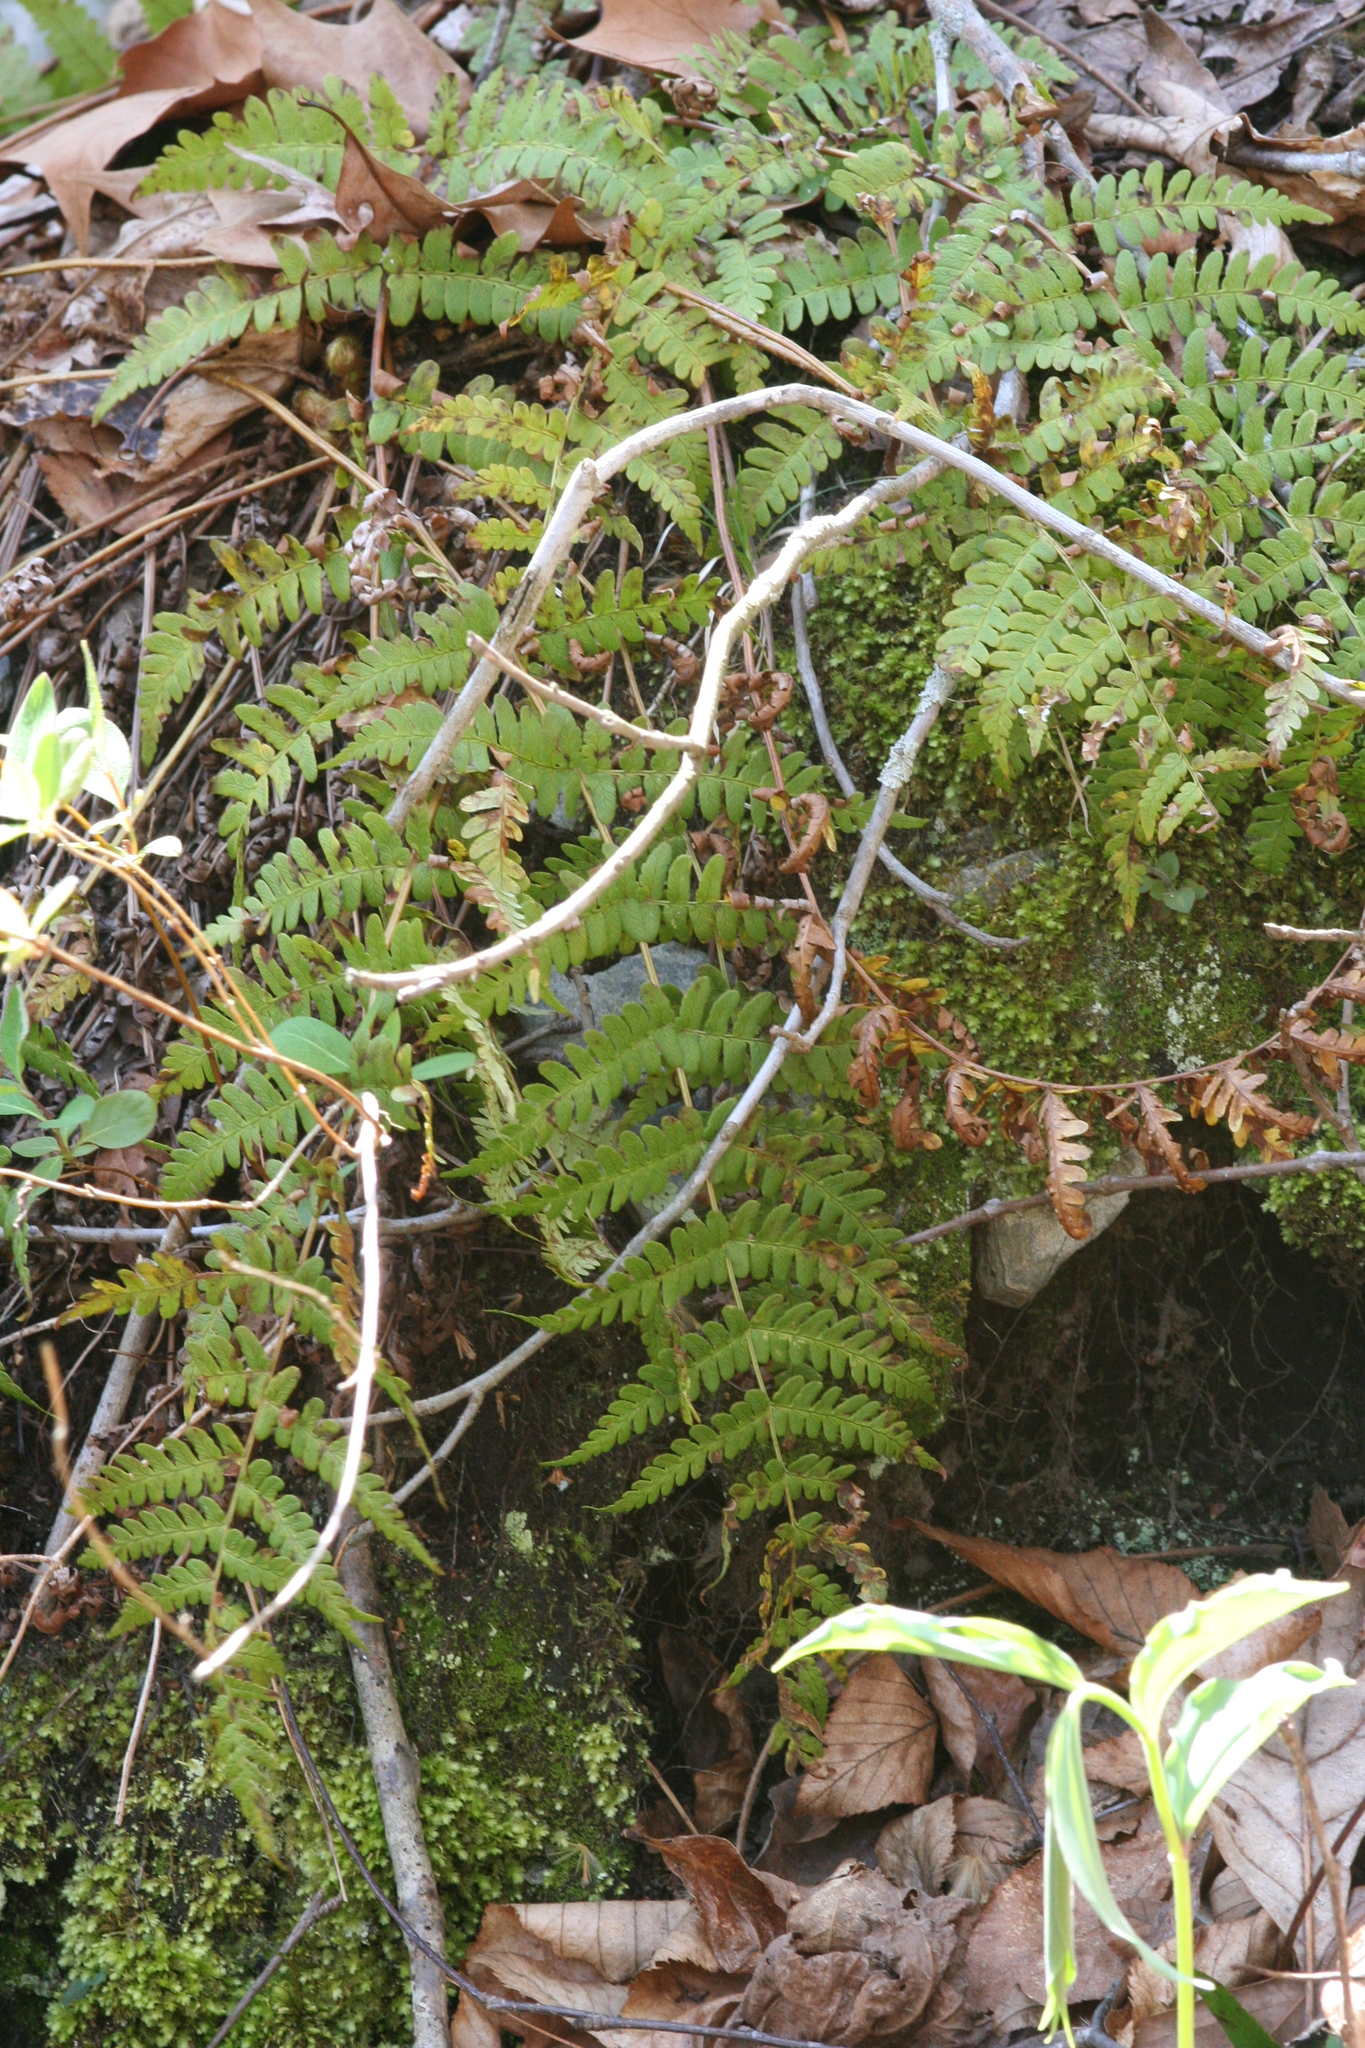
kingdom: Plantae
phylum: Tracheophyta
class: Polypodiopsida
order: Polypodiales
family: Dryopteridaceae
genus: Dryopteris
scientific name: Dryopteris marginalis
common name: Marginal wood fern
